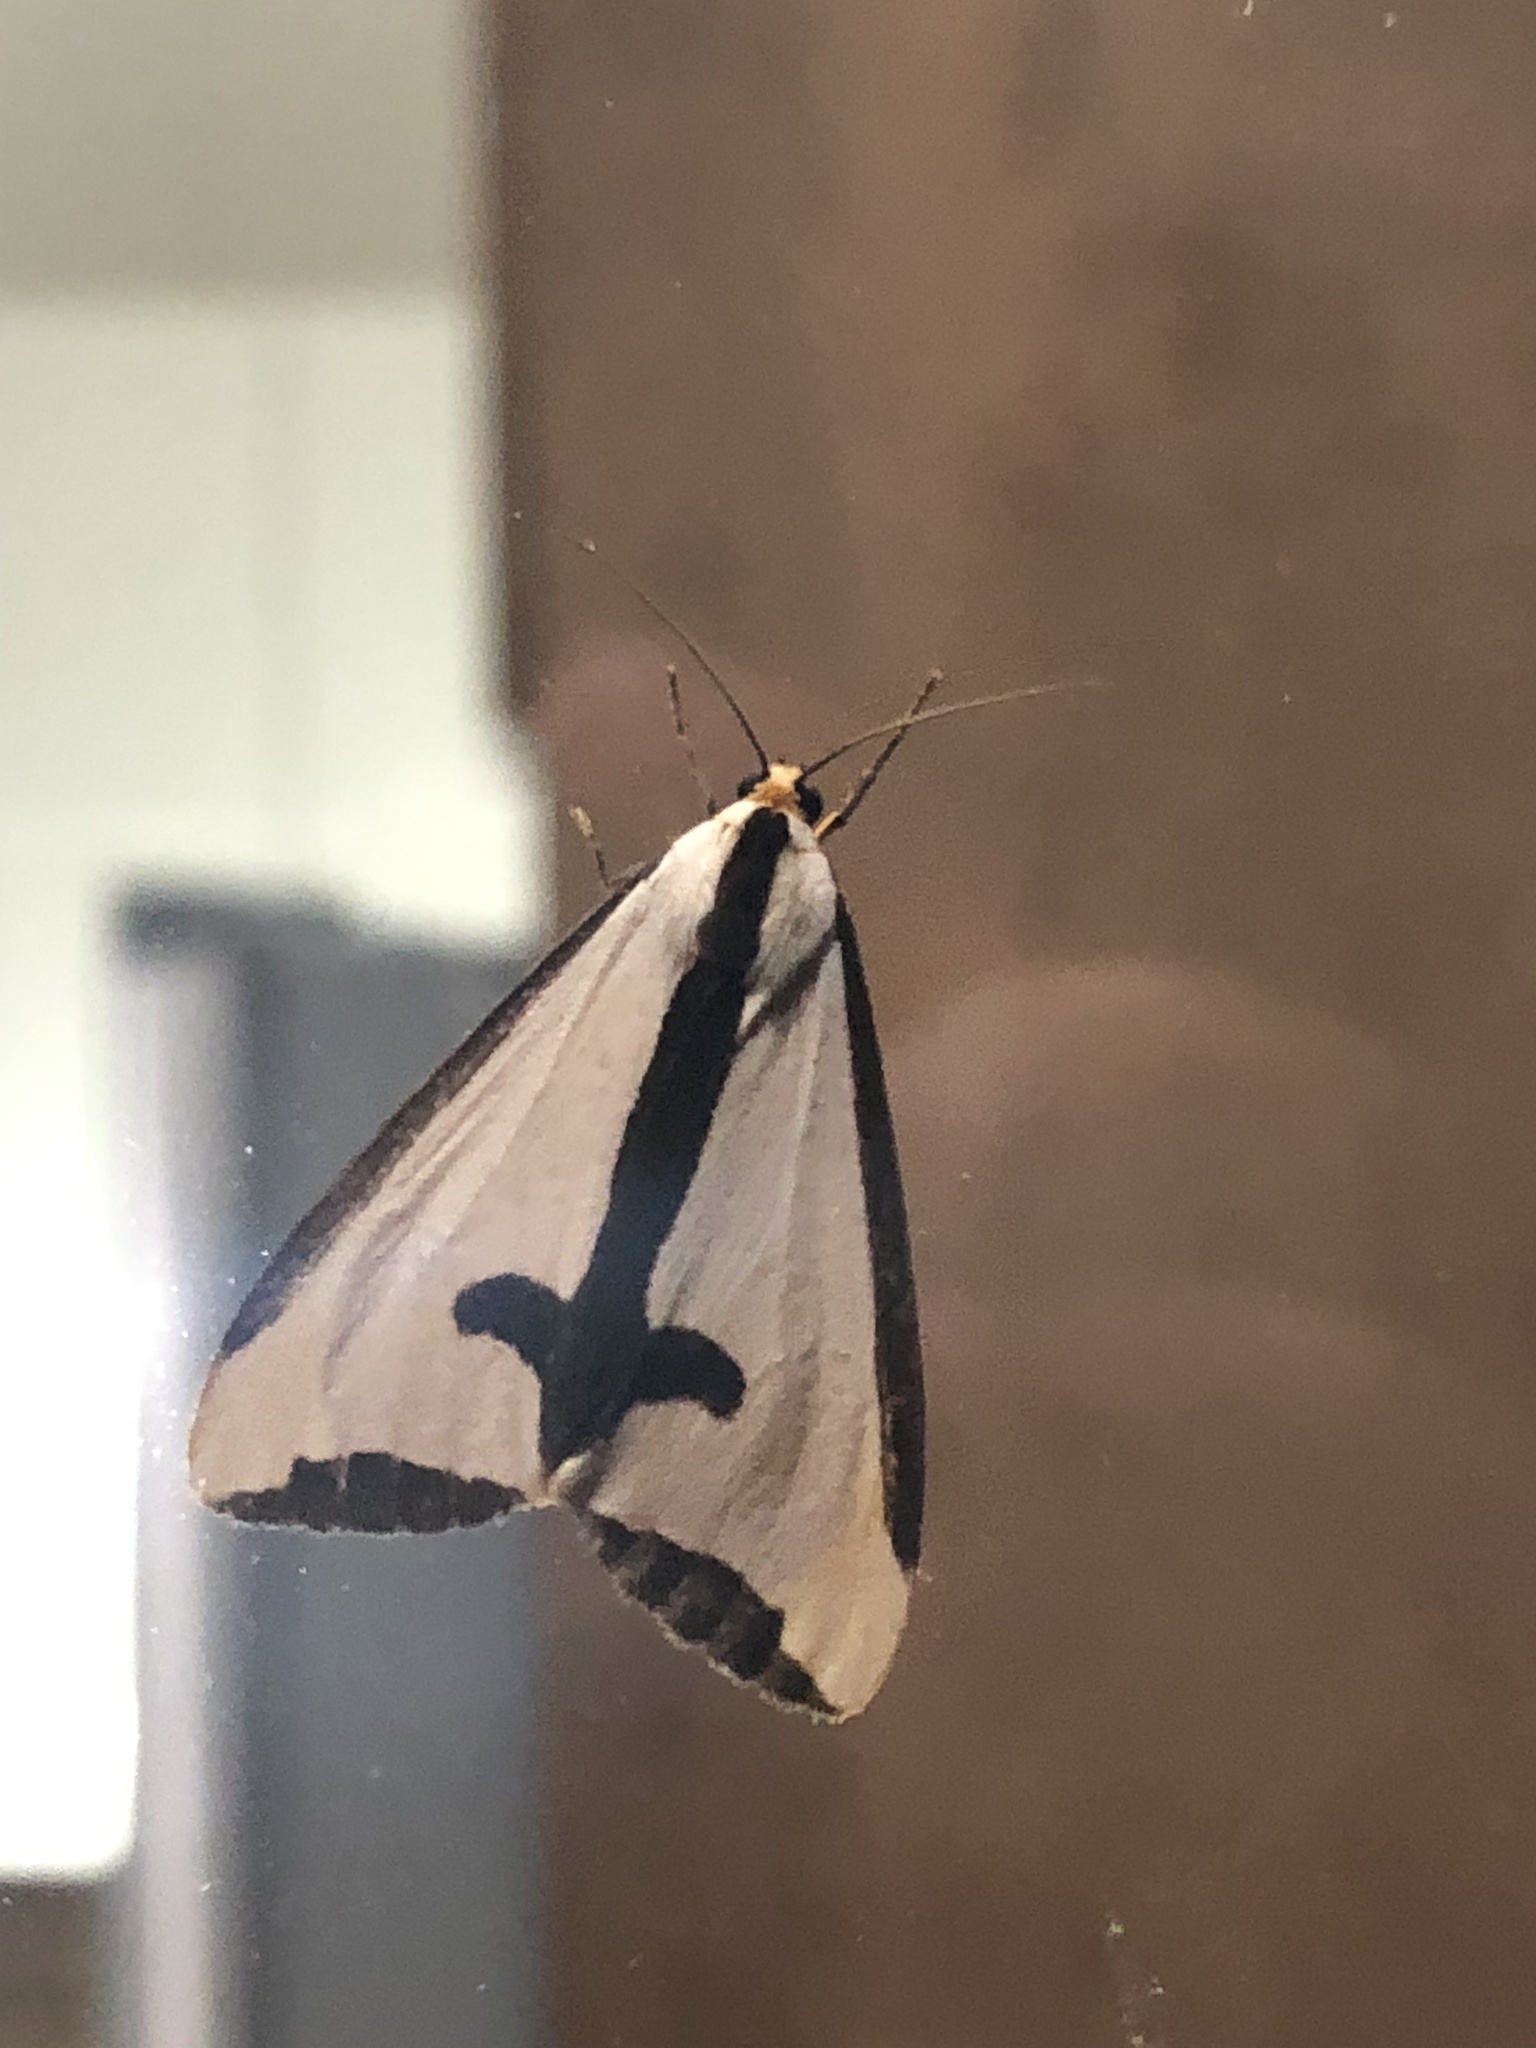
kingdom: Animalia
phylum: Arthropoda
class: Insecta
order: Lepidoptera
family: Erebidae
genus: Haploa
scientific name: Haploa clymene
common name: Clymene moth
